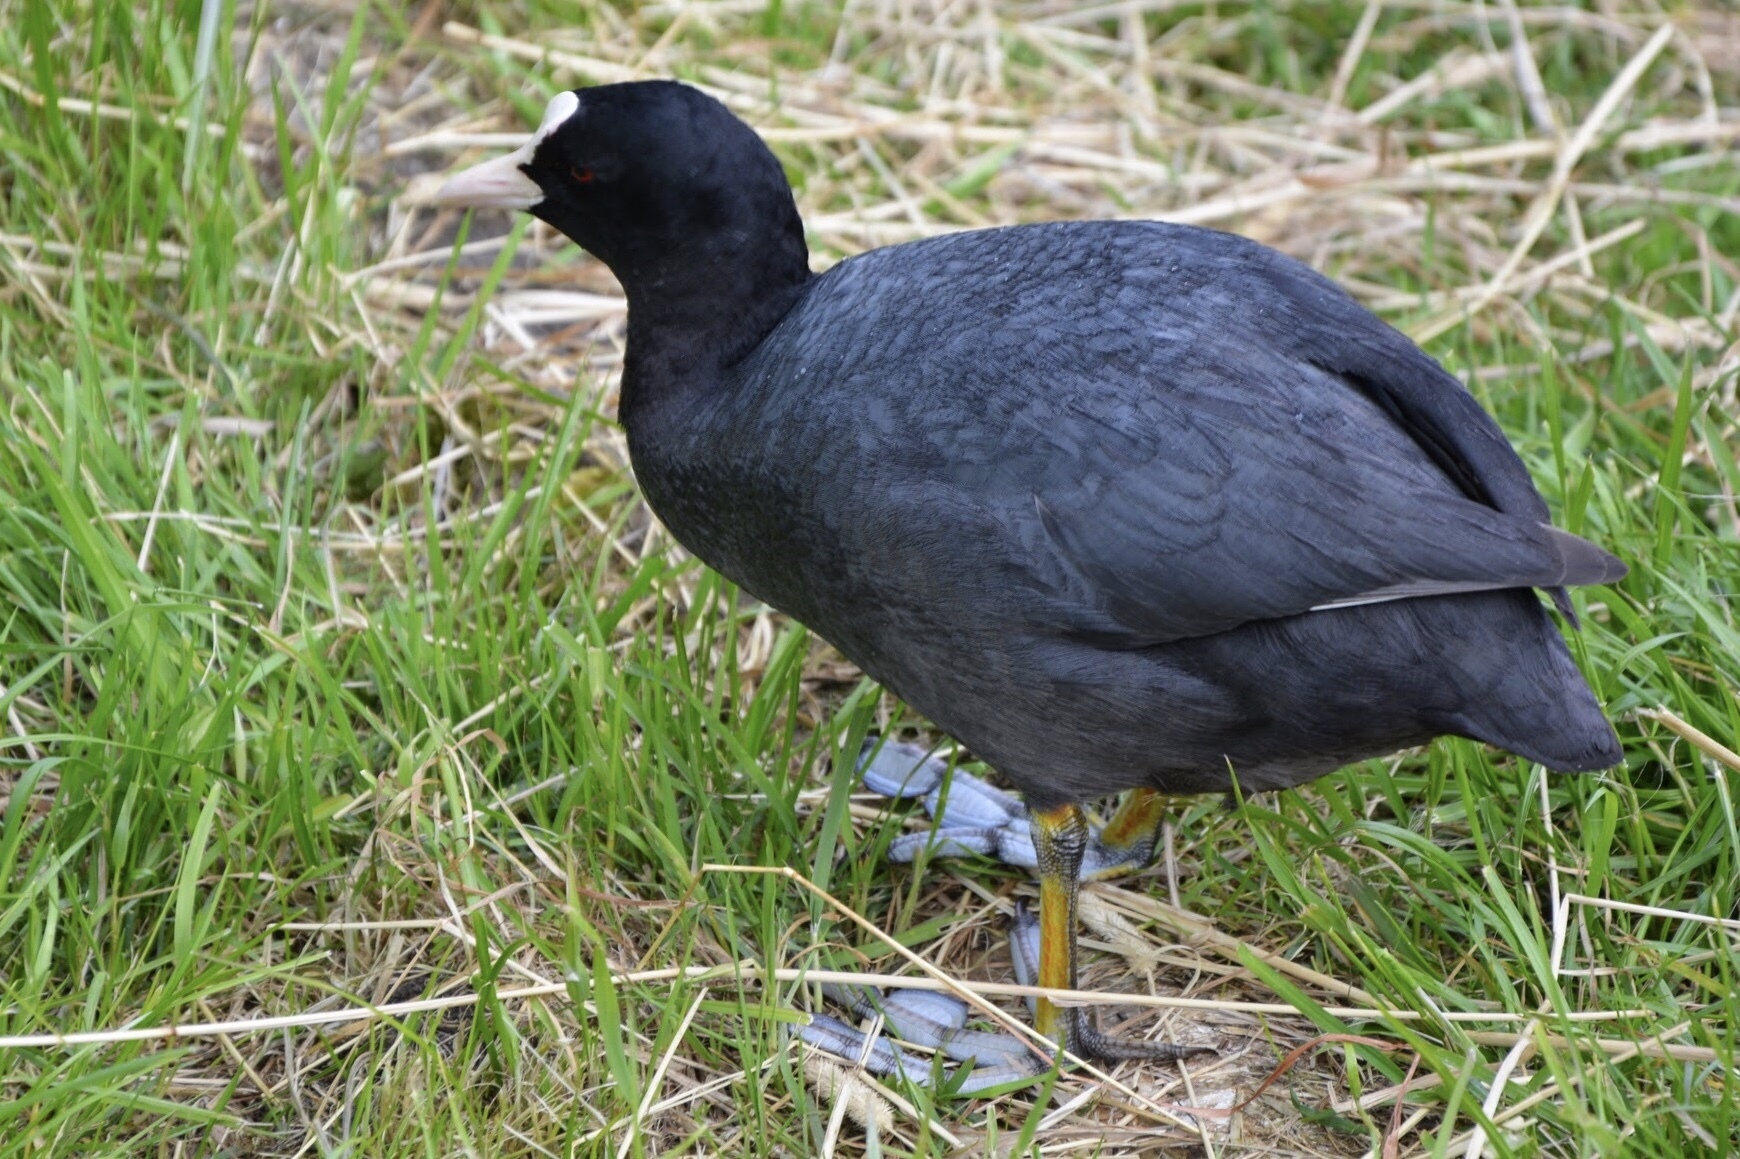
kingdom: Animalia
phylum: Chordata
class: Aves
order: Gruiformes
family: Rallidae
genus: Fulica
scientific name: Fulica atra
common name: Eurasian coot
